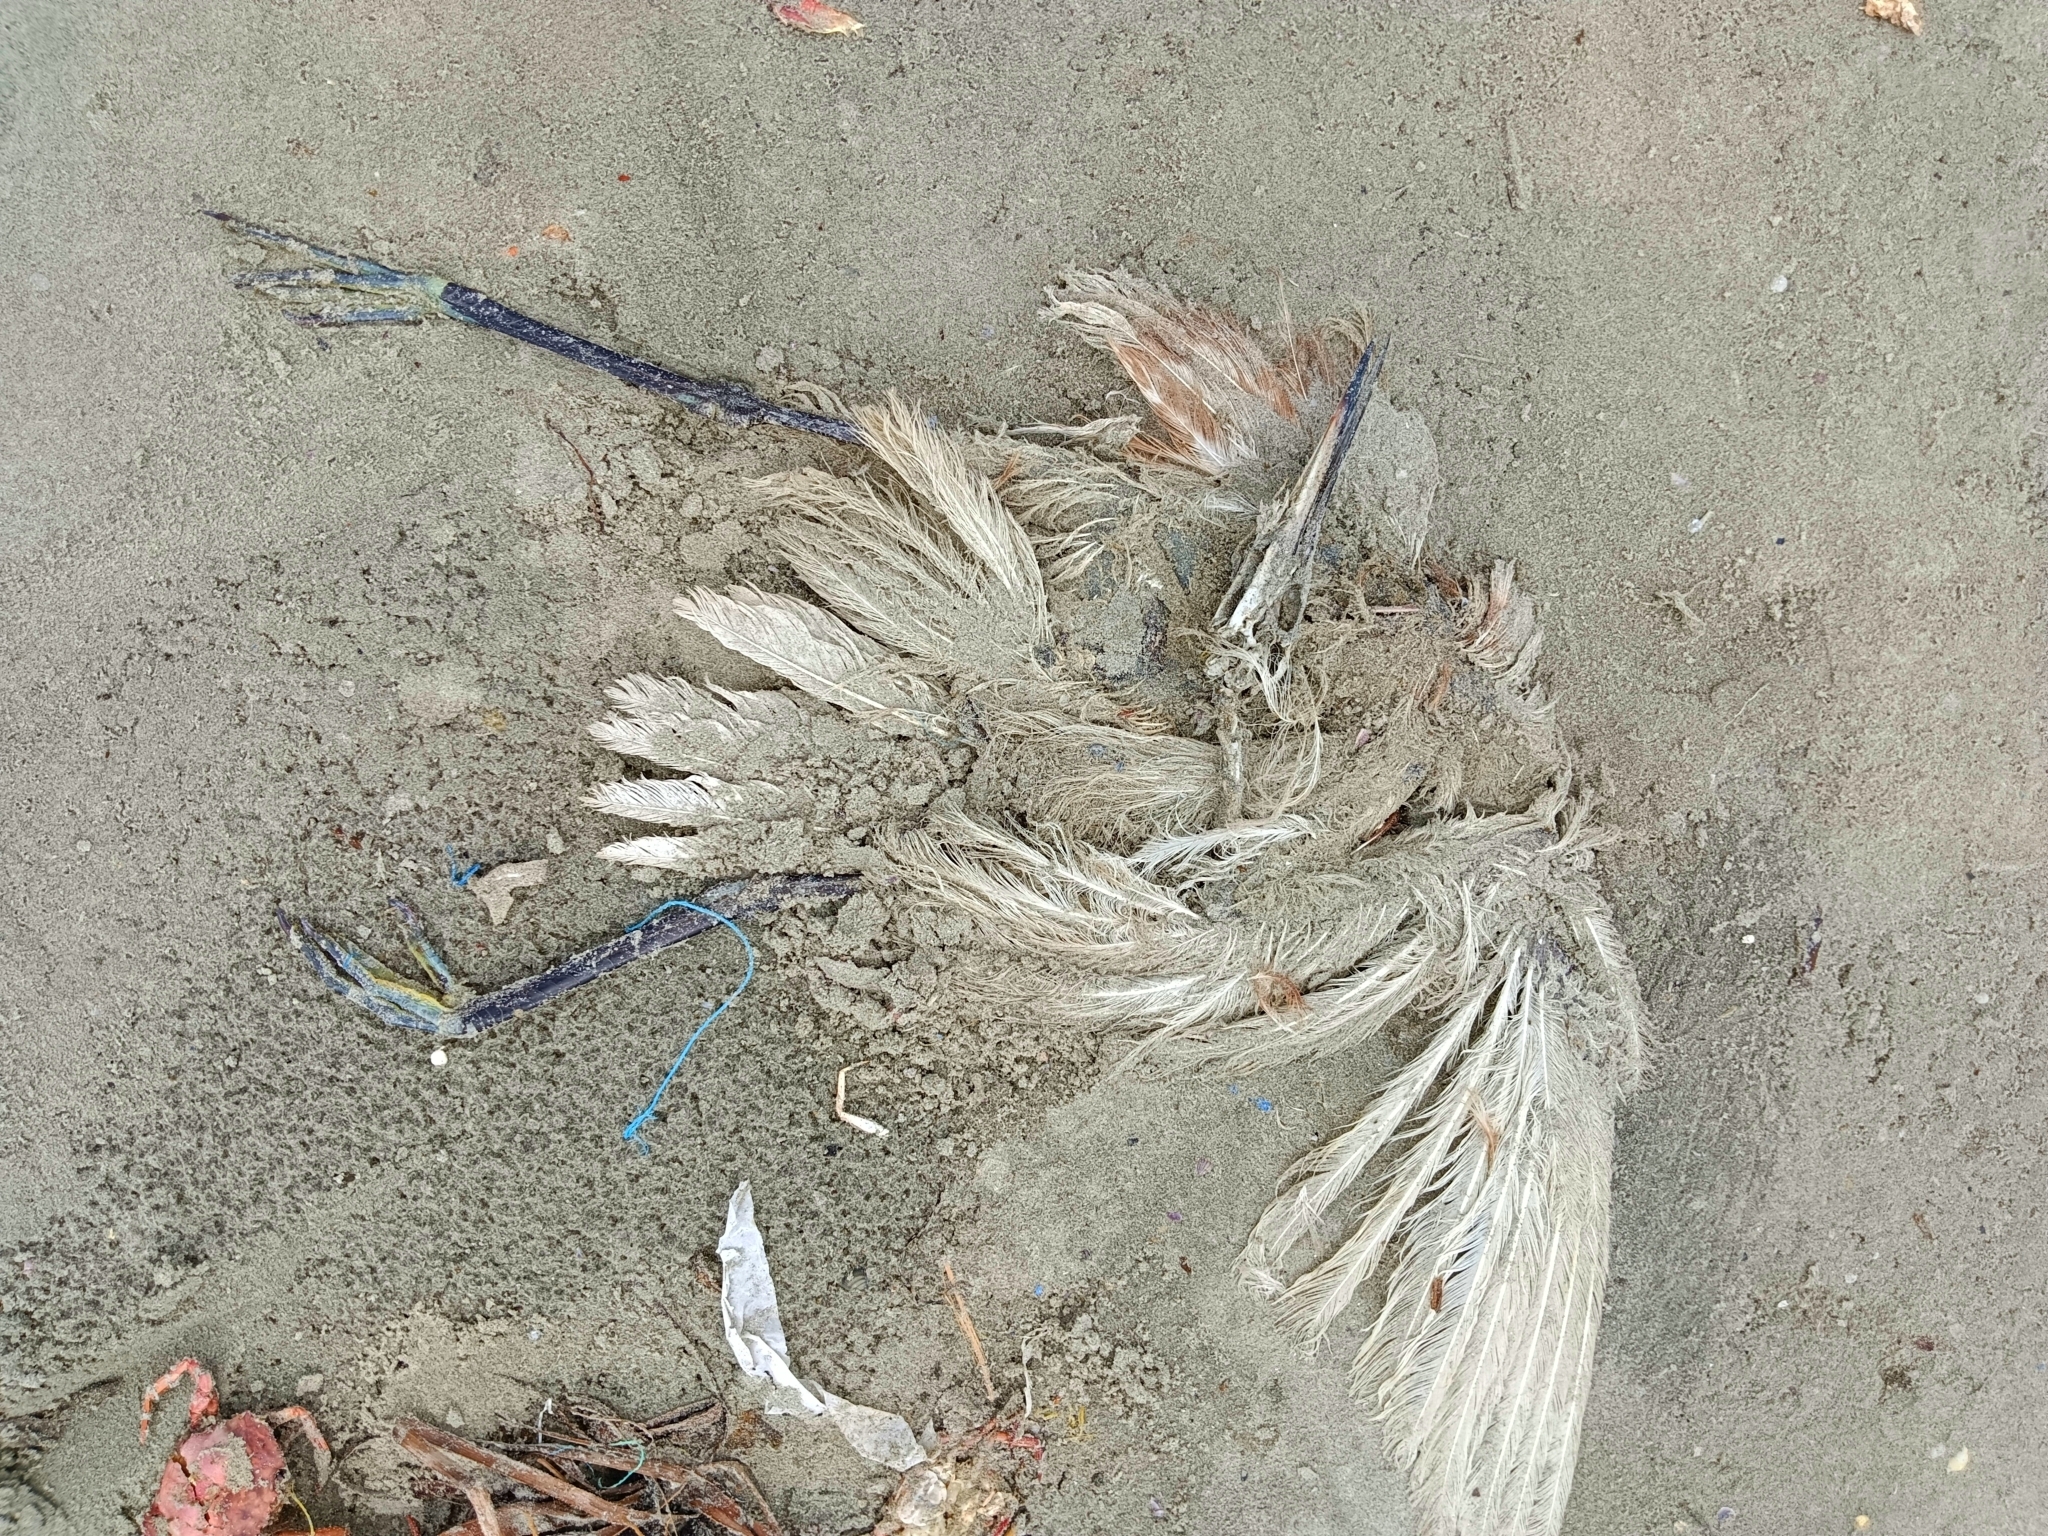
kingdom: Animalia
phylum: Chordata
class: Aves
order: Pelecaniformes
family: Ardeidae
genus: Egretta
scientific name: Egretta garzetta
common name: Little egret
